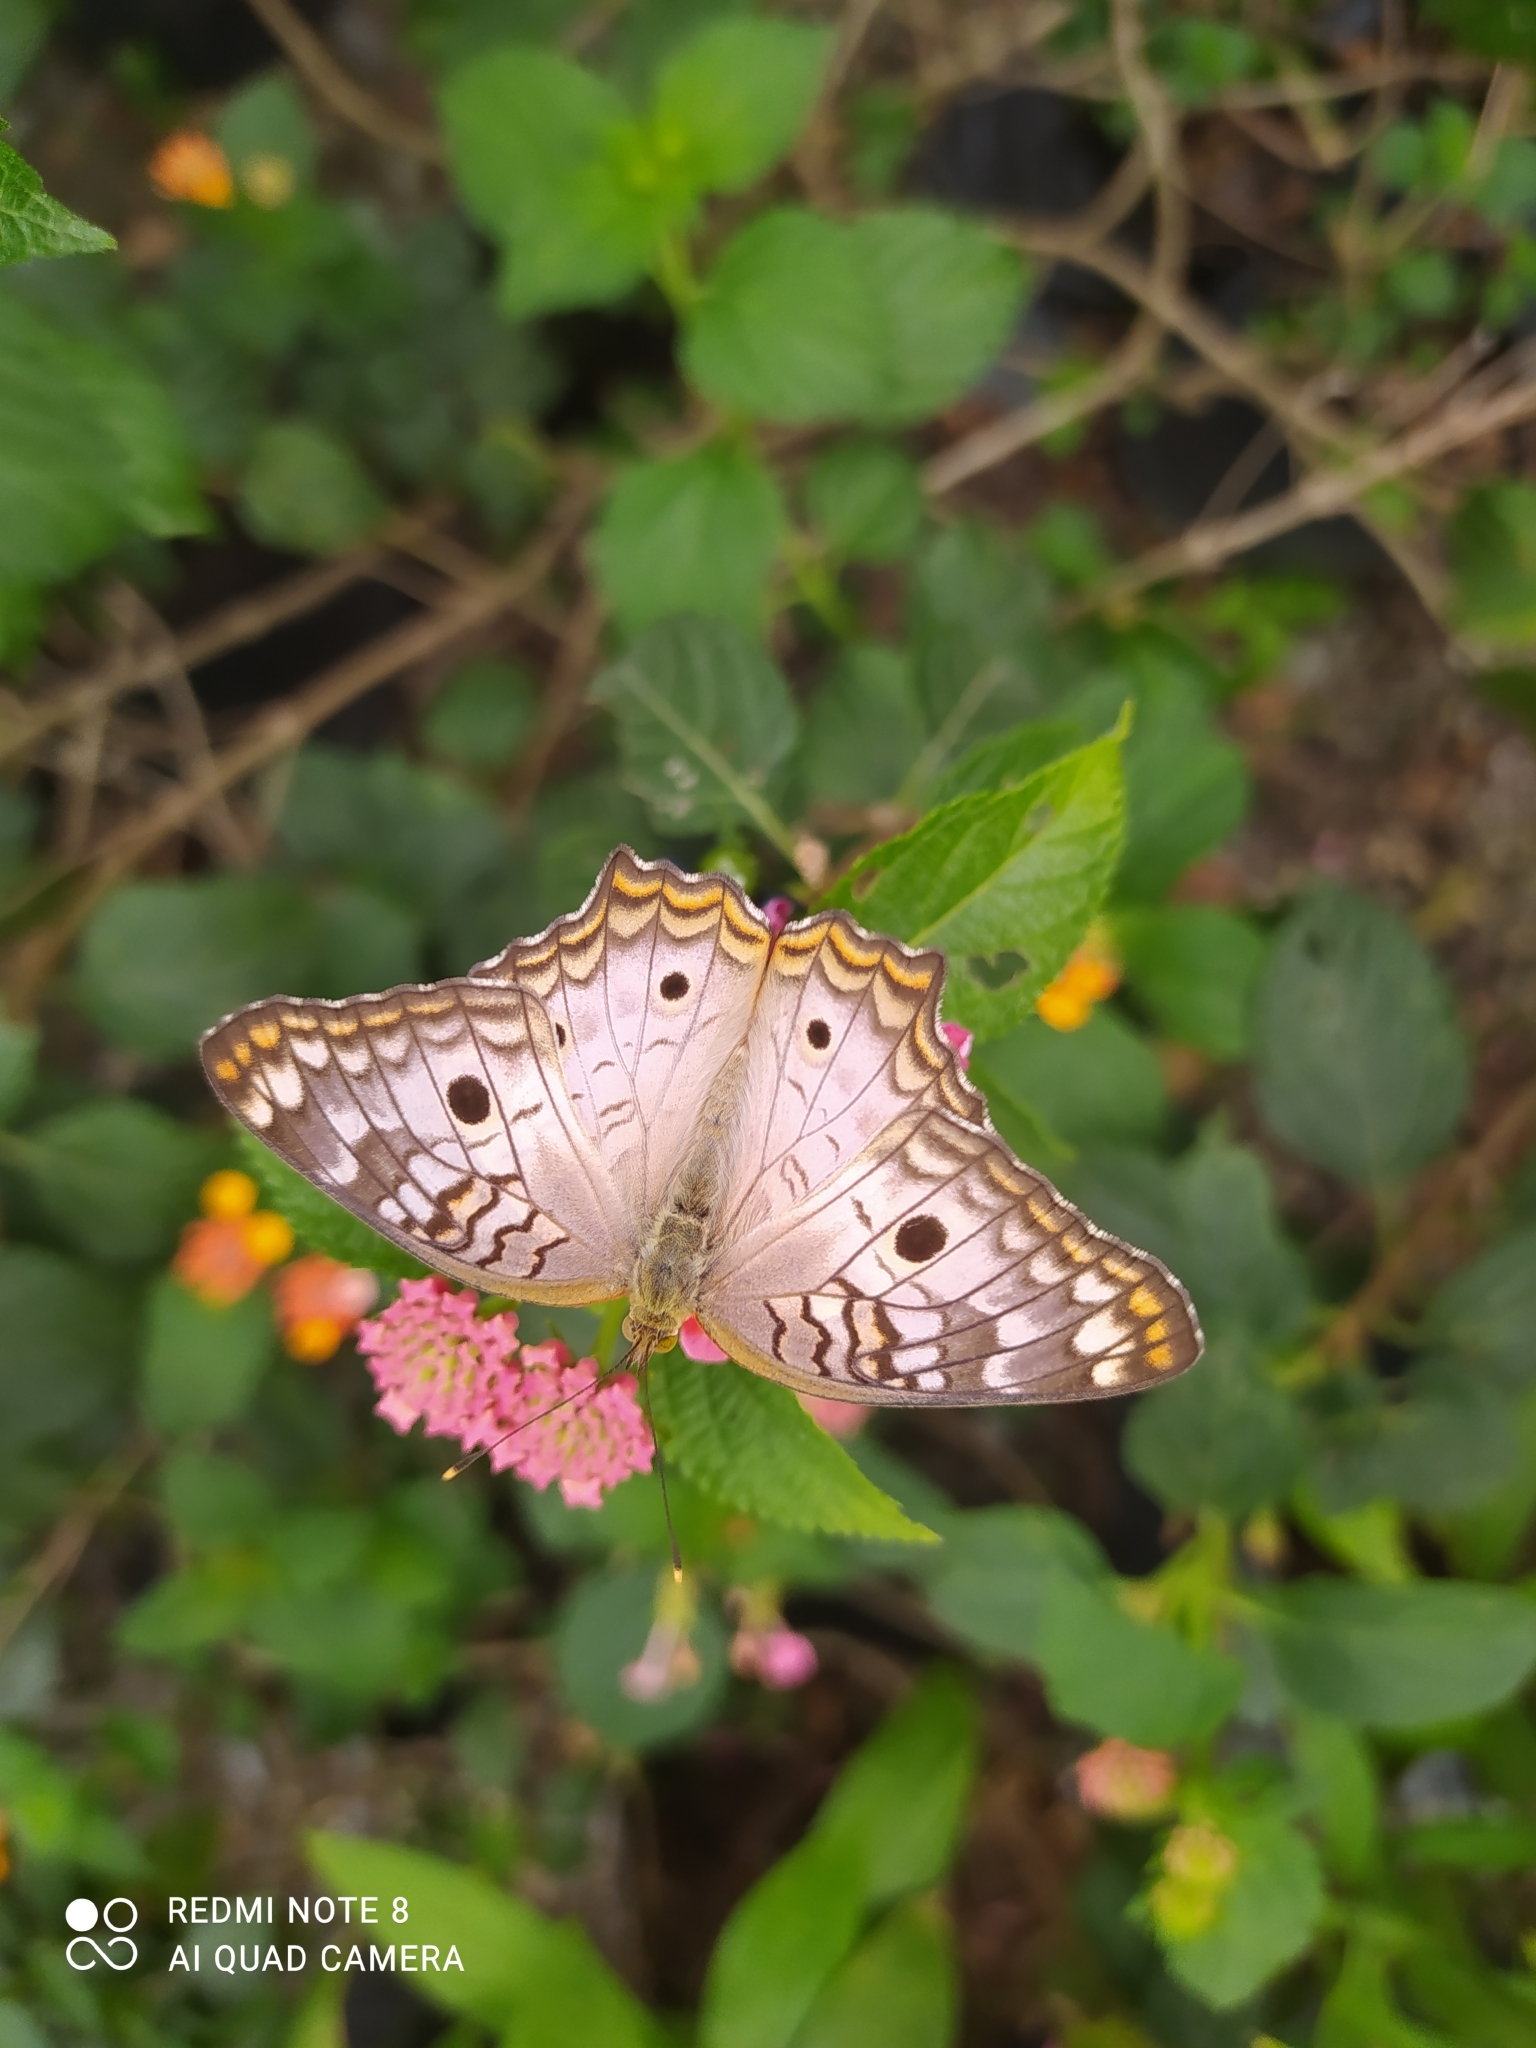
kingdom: Animalia
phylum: Arthropoda
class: Insecta
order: Lepidoptera
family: Nymphalidae
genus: Anartia
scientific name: Anartia jatrophae
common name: White peacock
